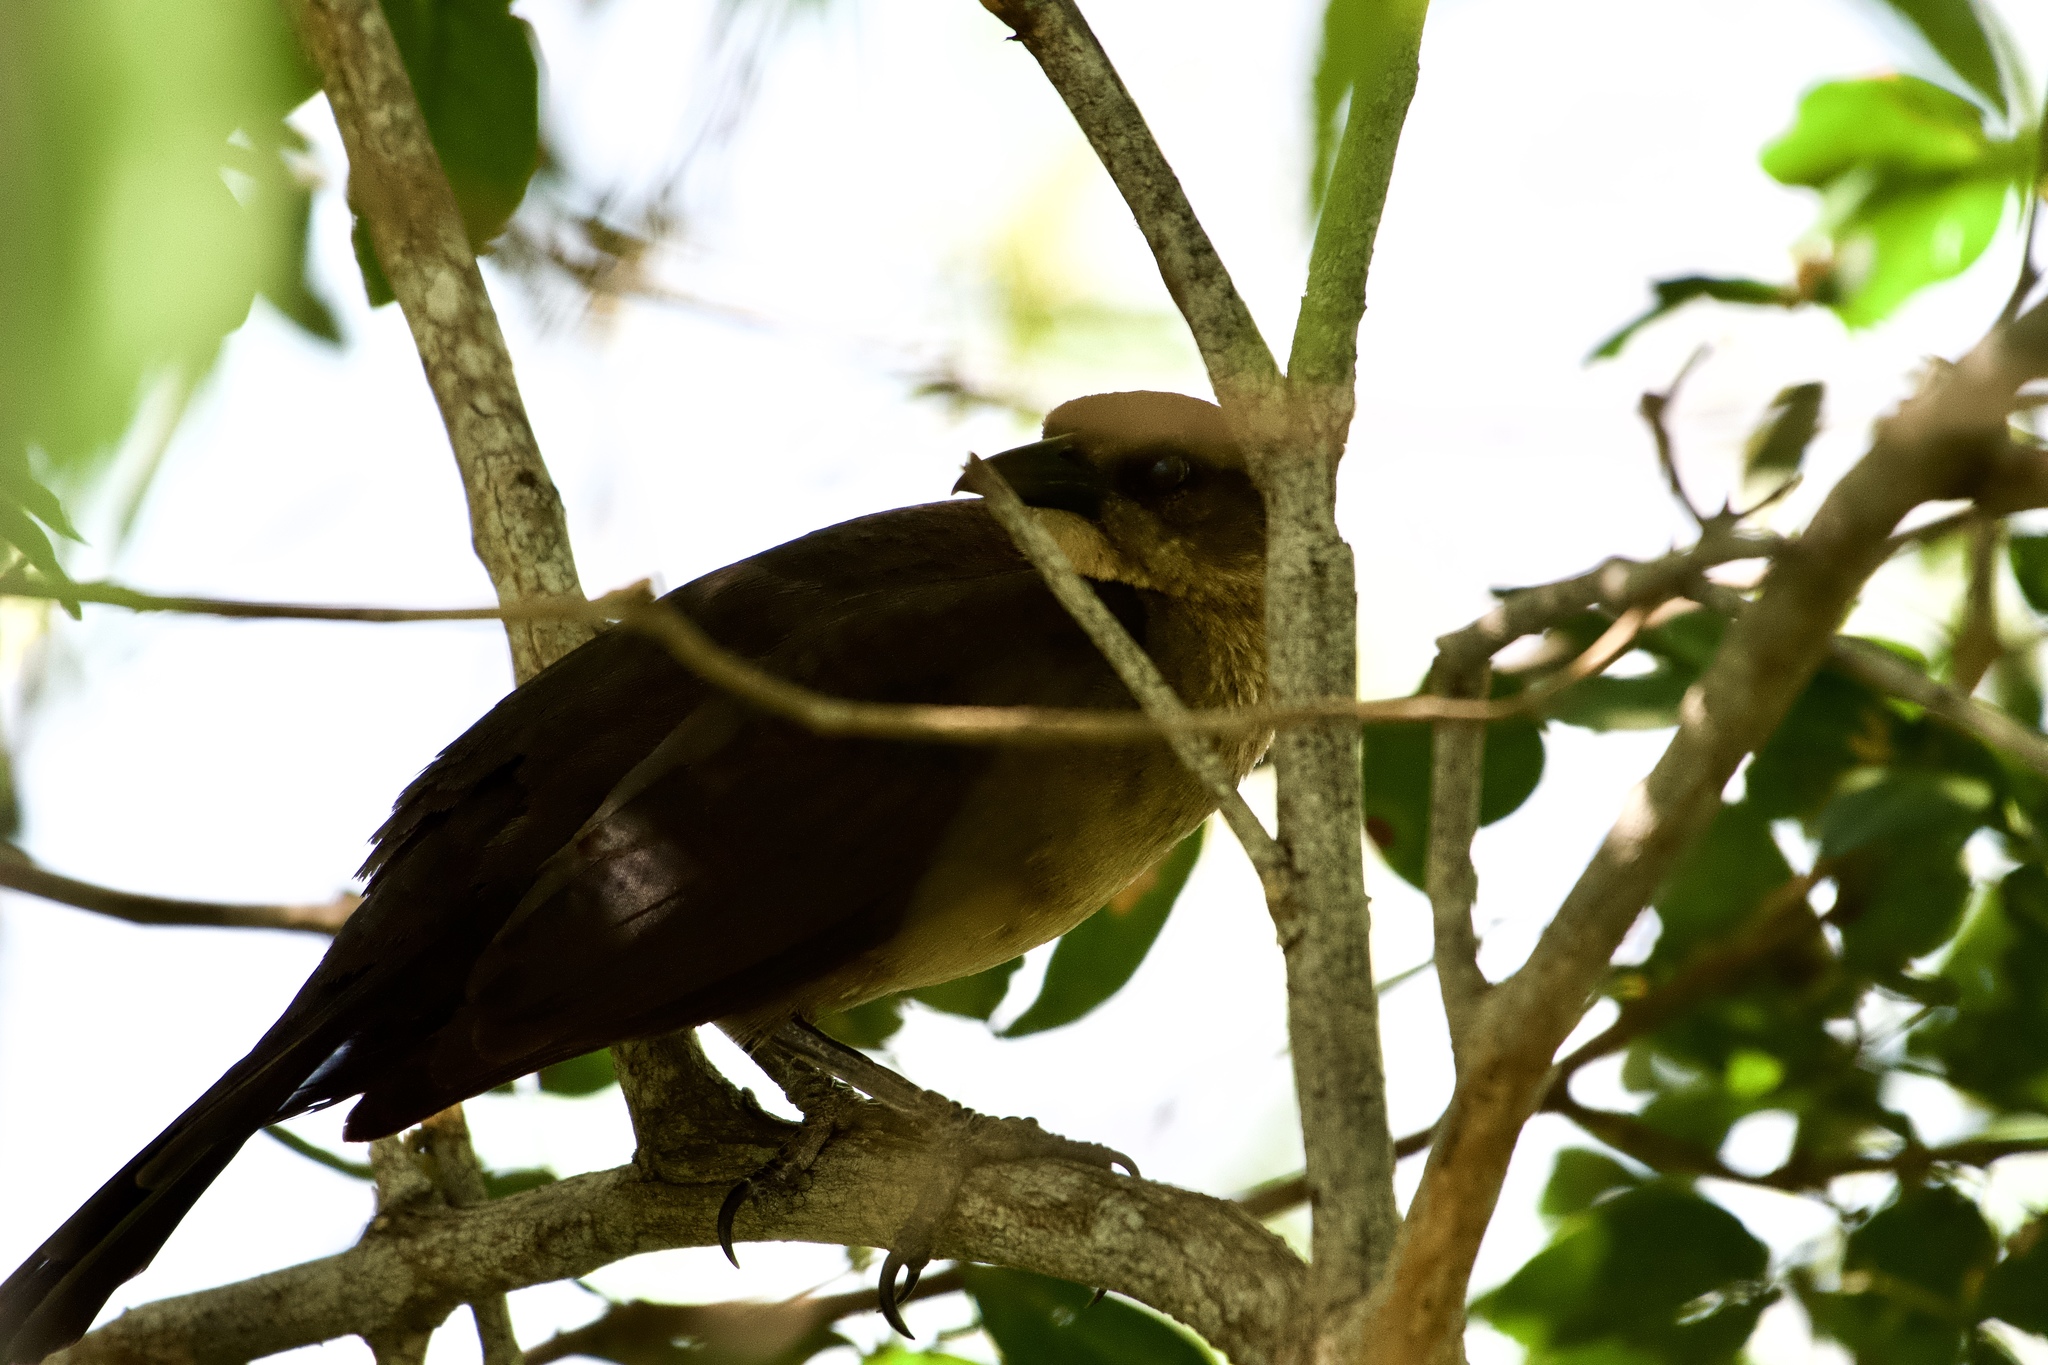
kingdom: Animalia
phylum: Chordata
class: Aves
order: Passeriformes
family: Icteridae
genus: Quiscalus
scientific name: Quiscalus mexicanus
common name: Great-tailed grackle
